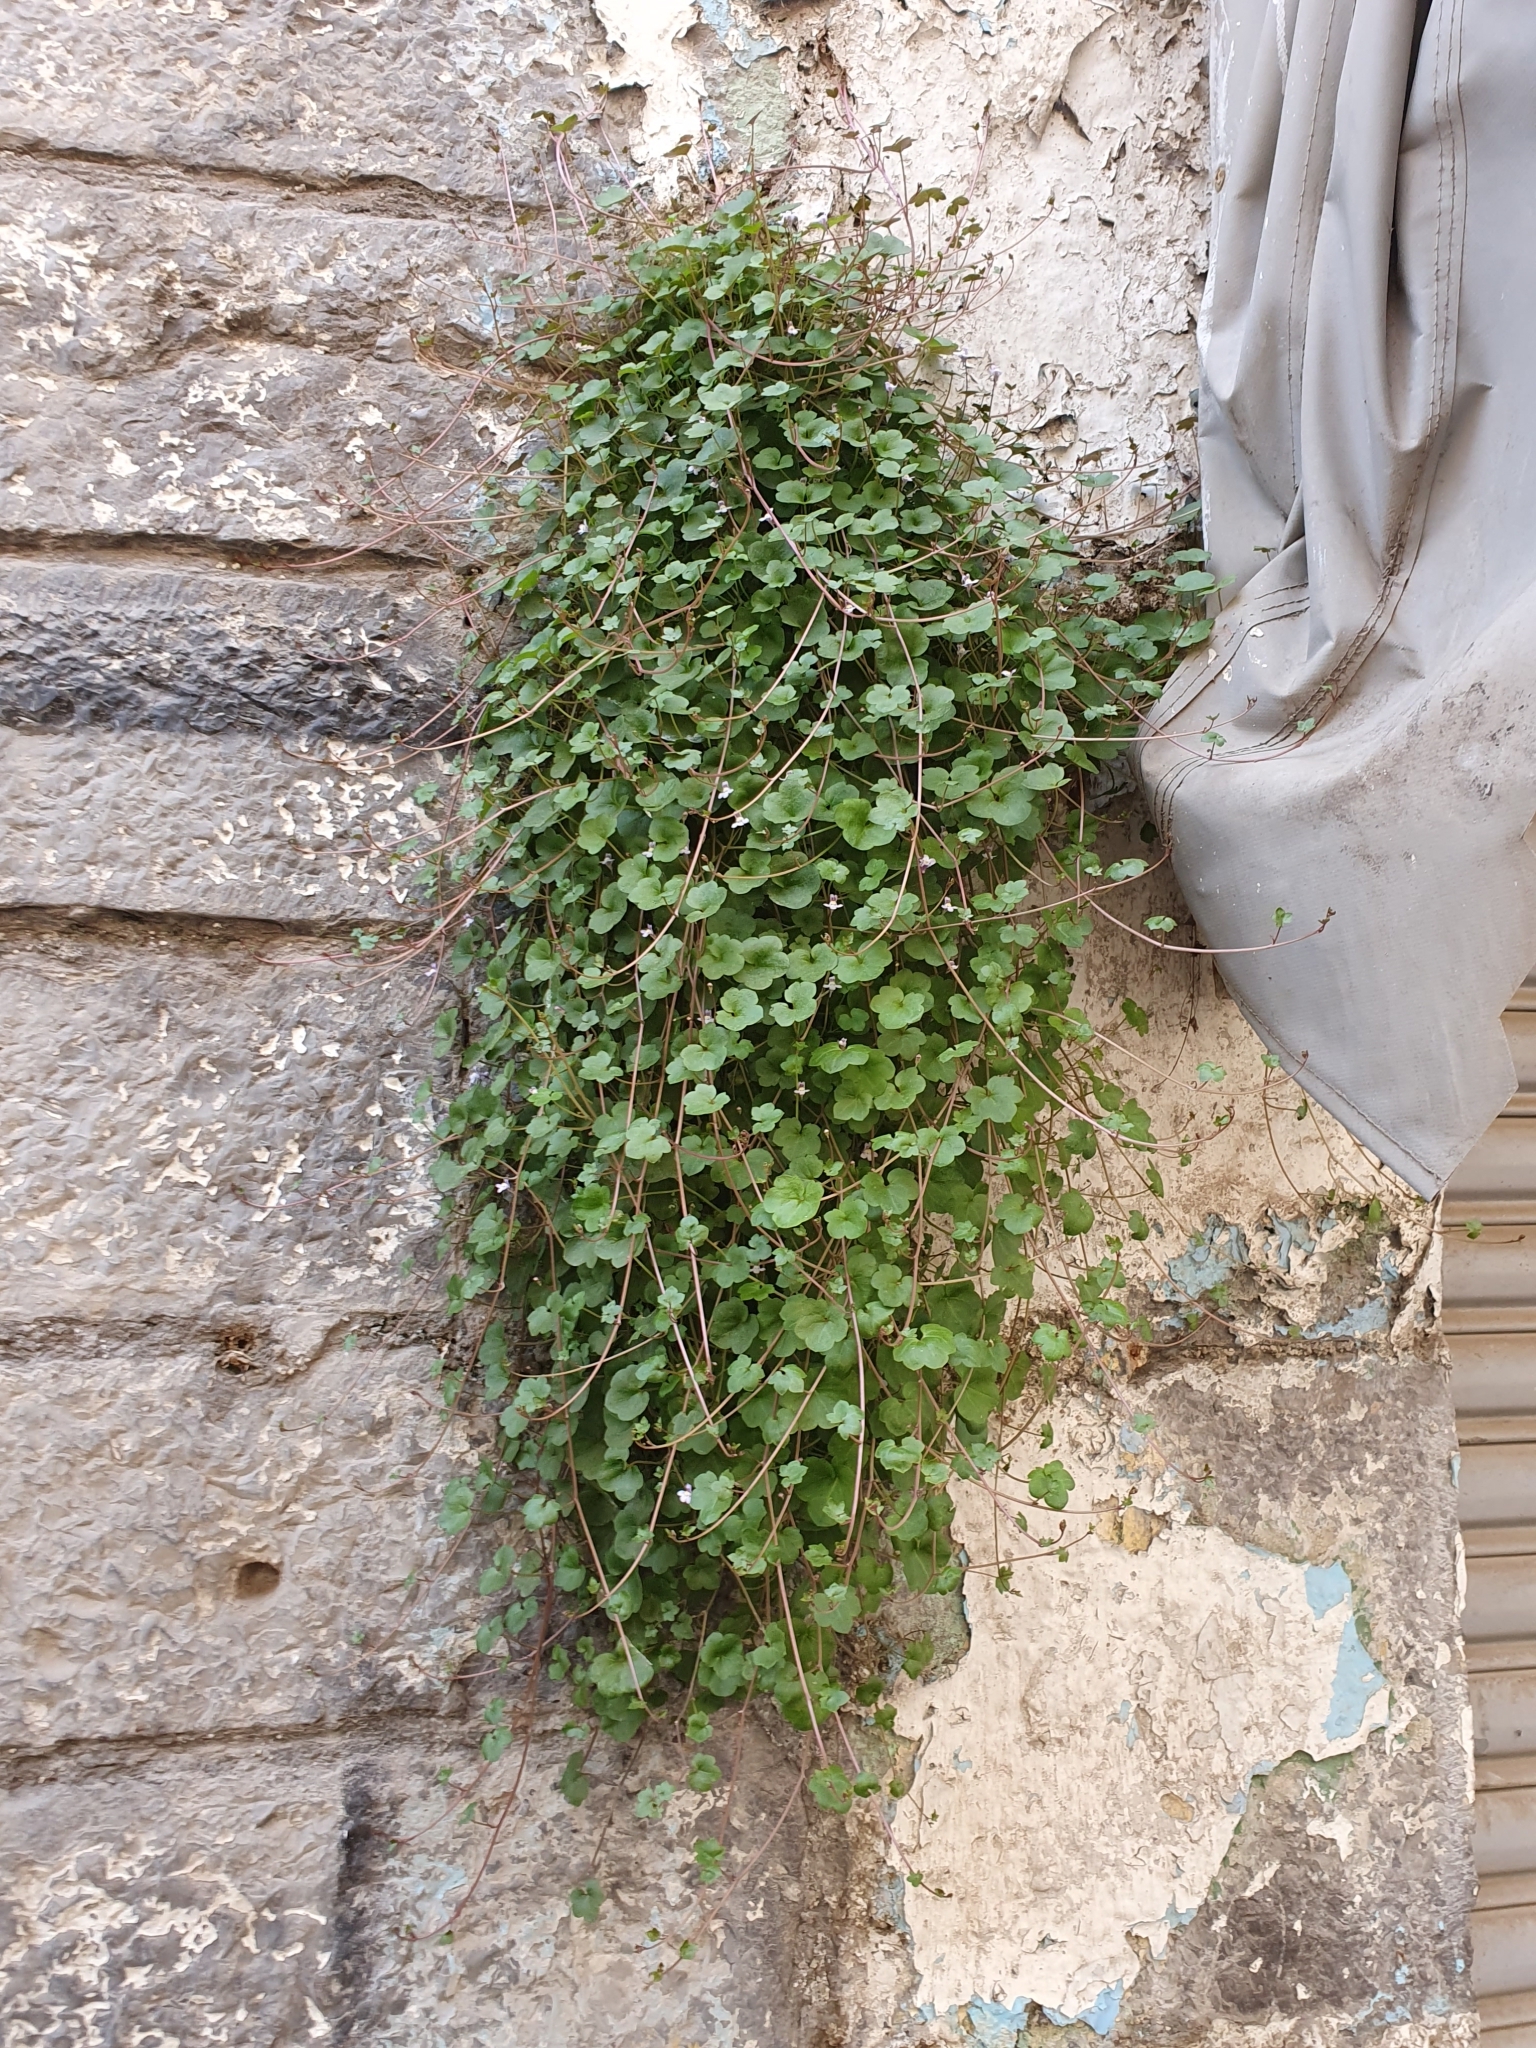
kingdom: Plantae
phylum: Tracheophyta
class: Magnoliopsida
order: Lamiales
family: Plantaginaceae
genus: Cymbalaria
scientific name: Cymbalaria muralis
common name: Ivy-leaved toadflax
